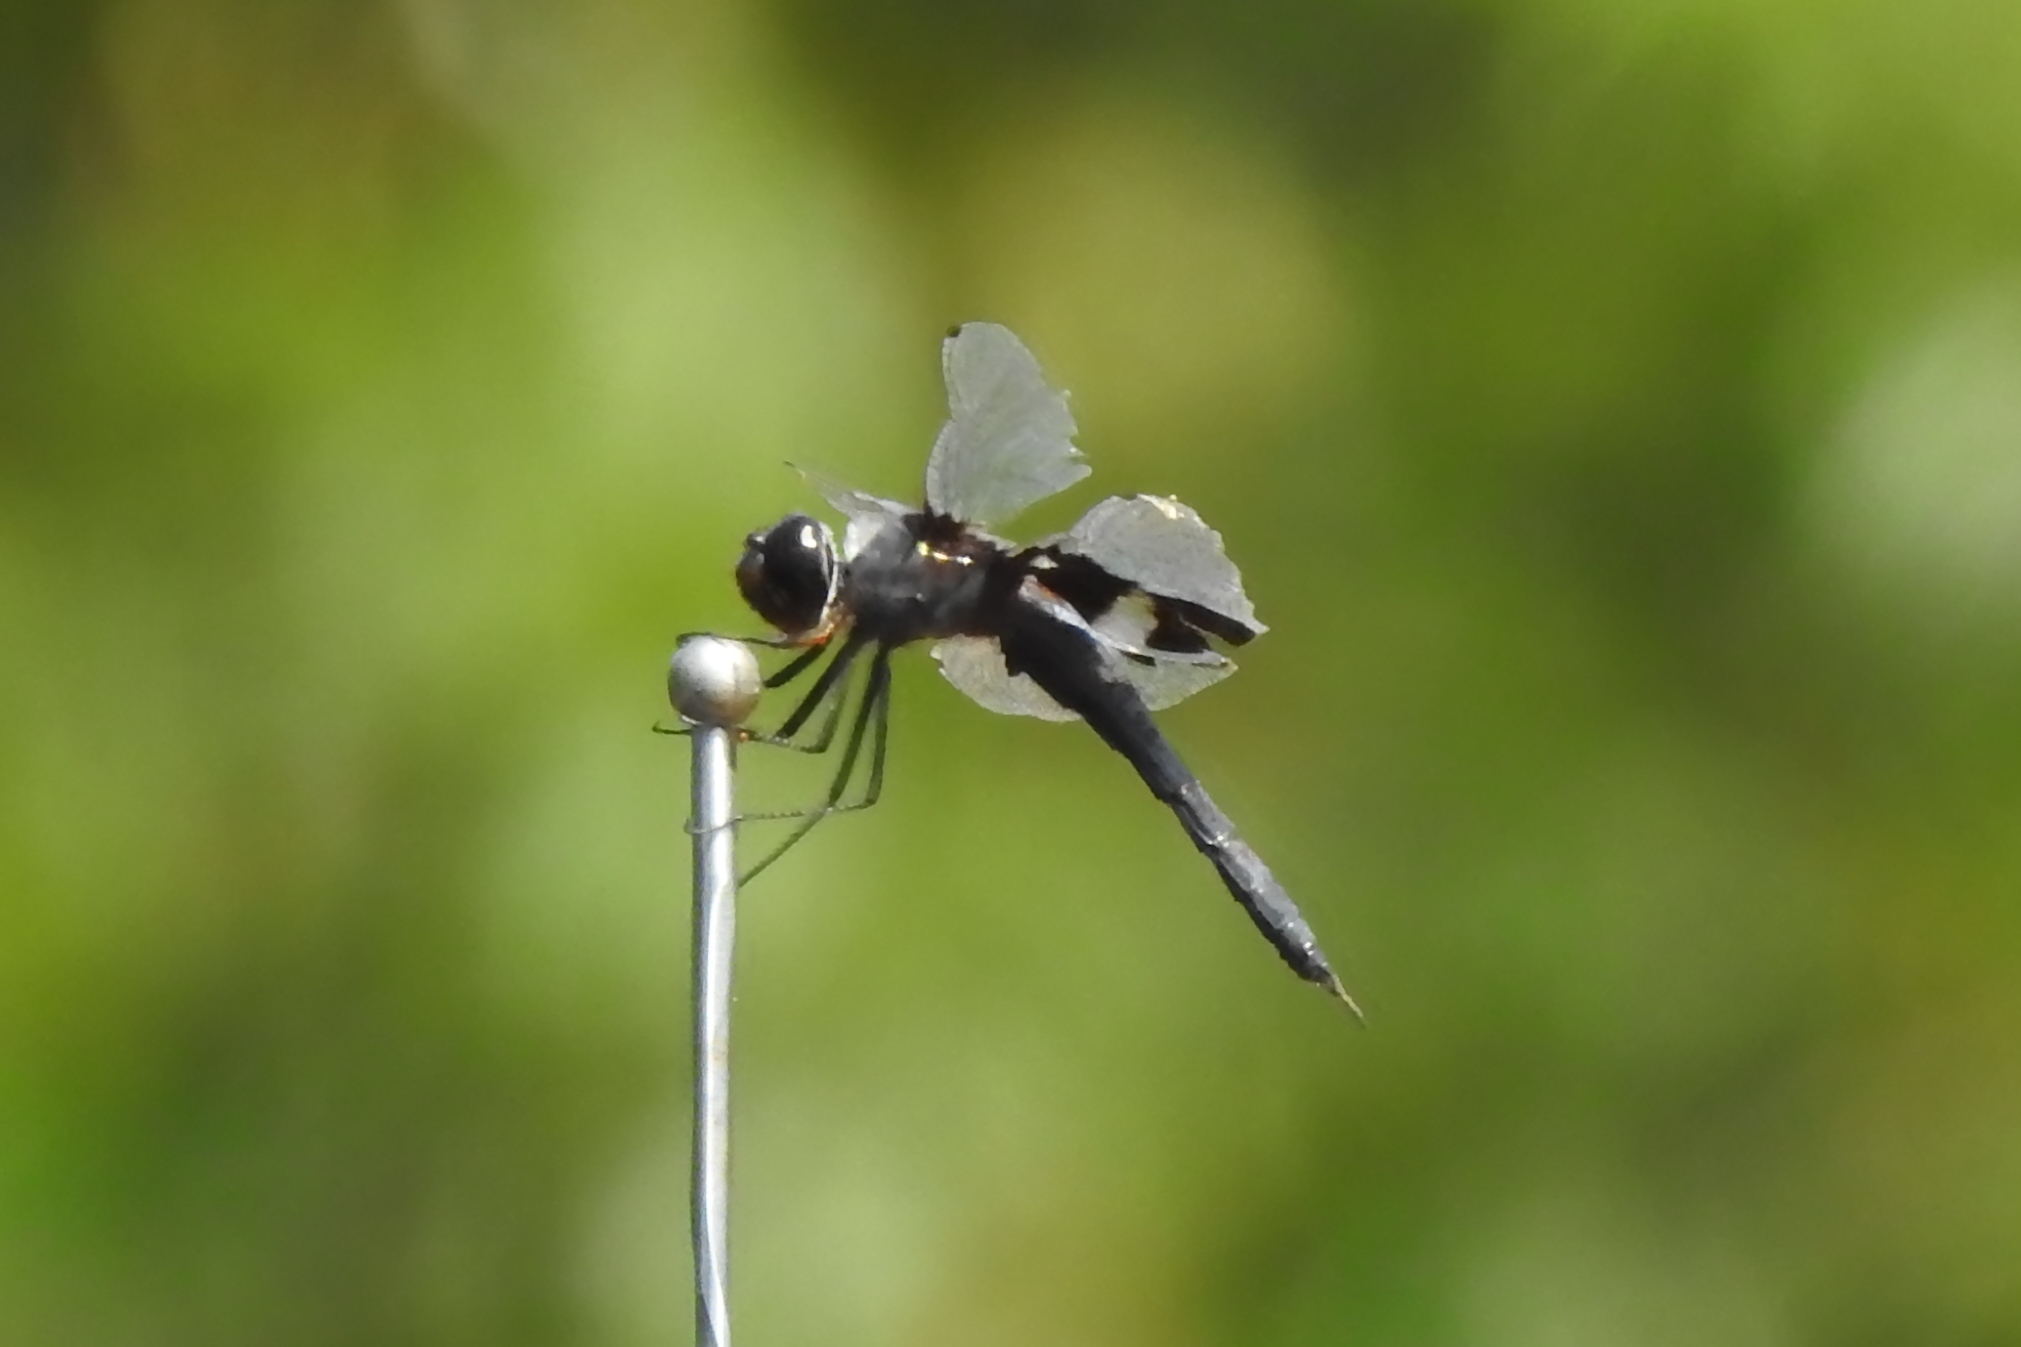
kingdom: Animalia
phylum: Arthropoda
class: Insecta
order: Odonata
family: Libellulidae
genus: Tramea
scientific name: Tramea lacerata
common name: Black saddlebags
